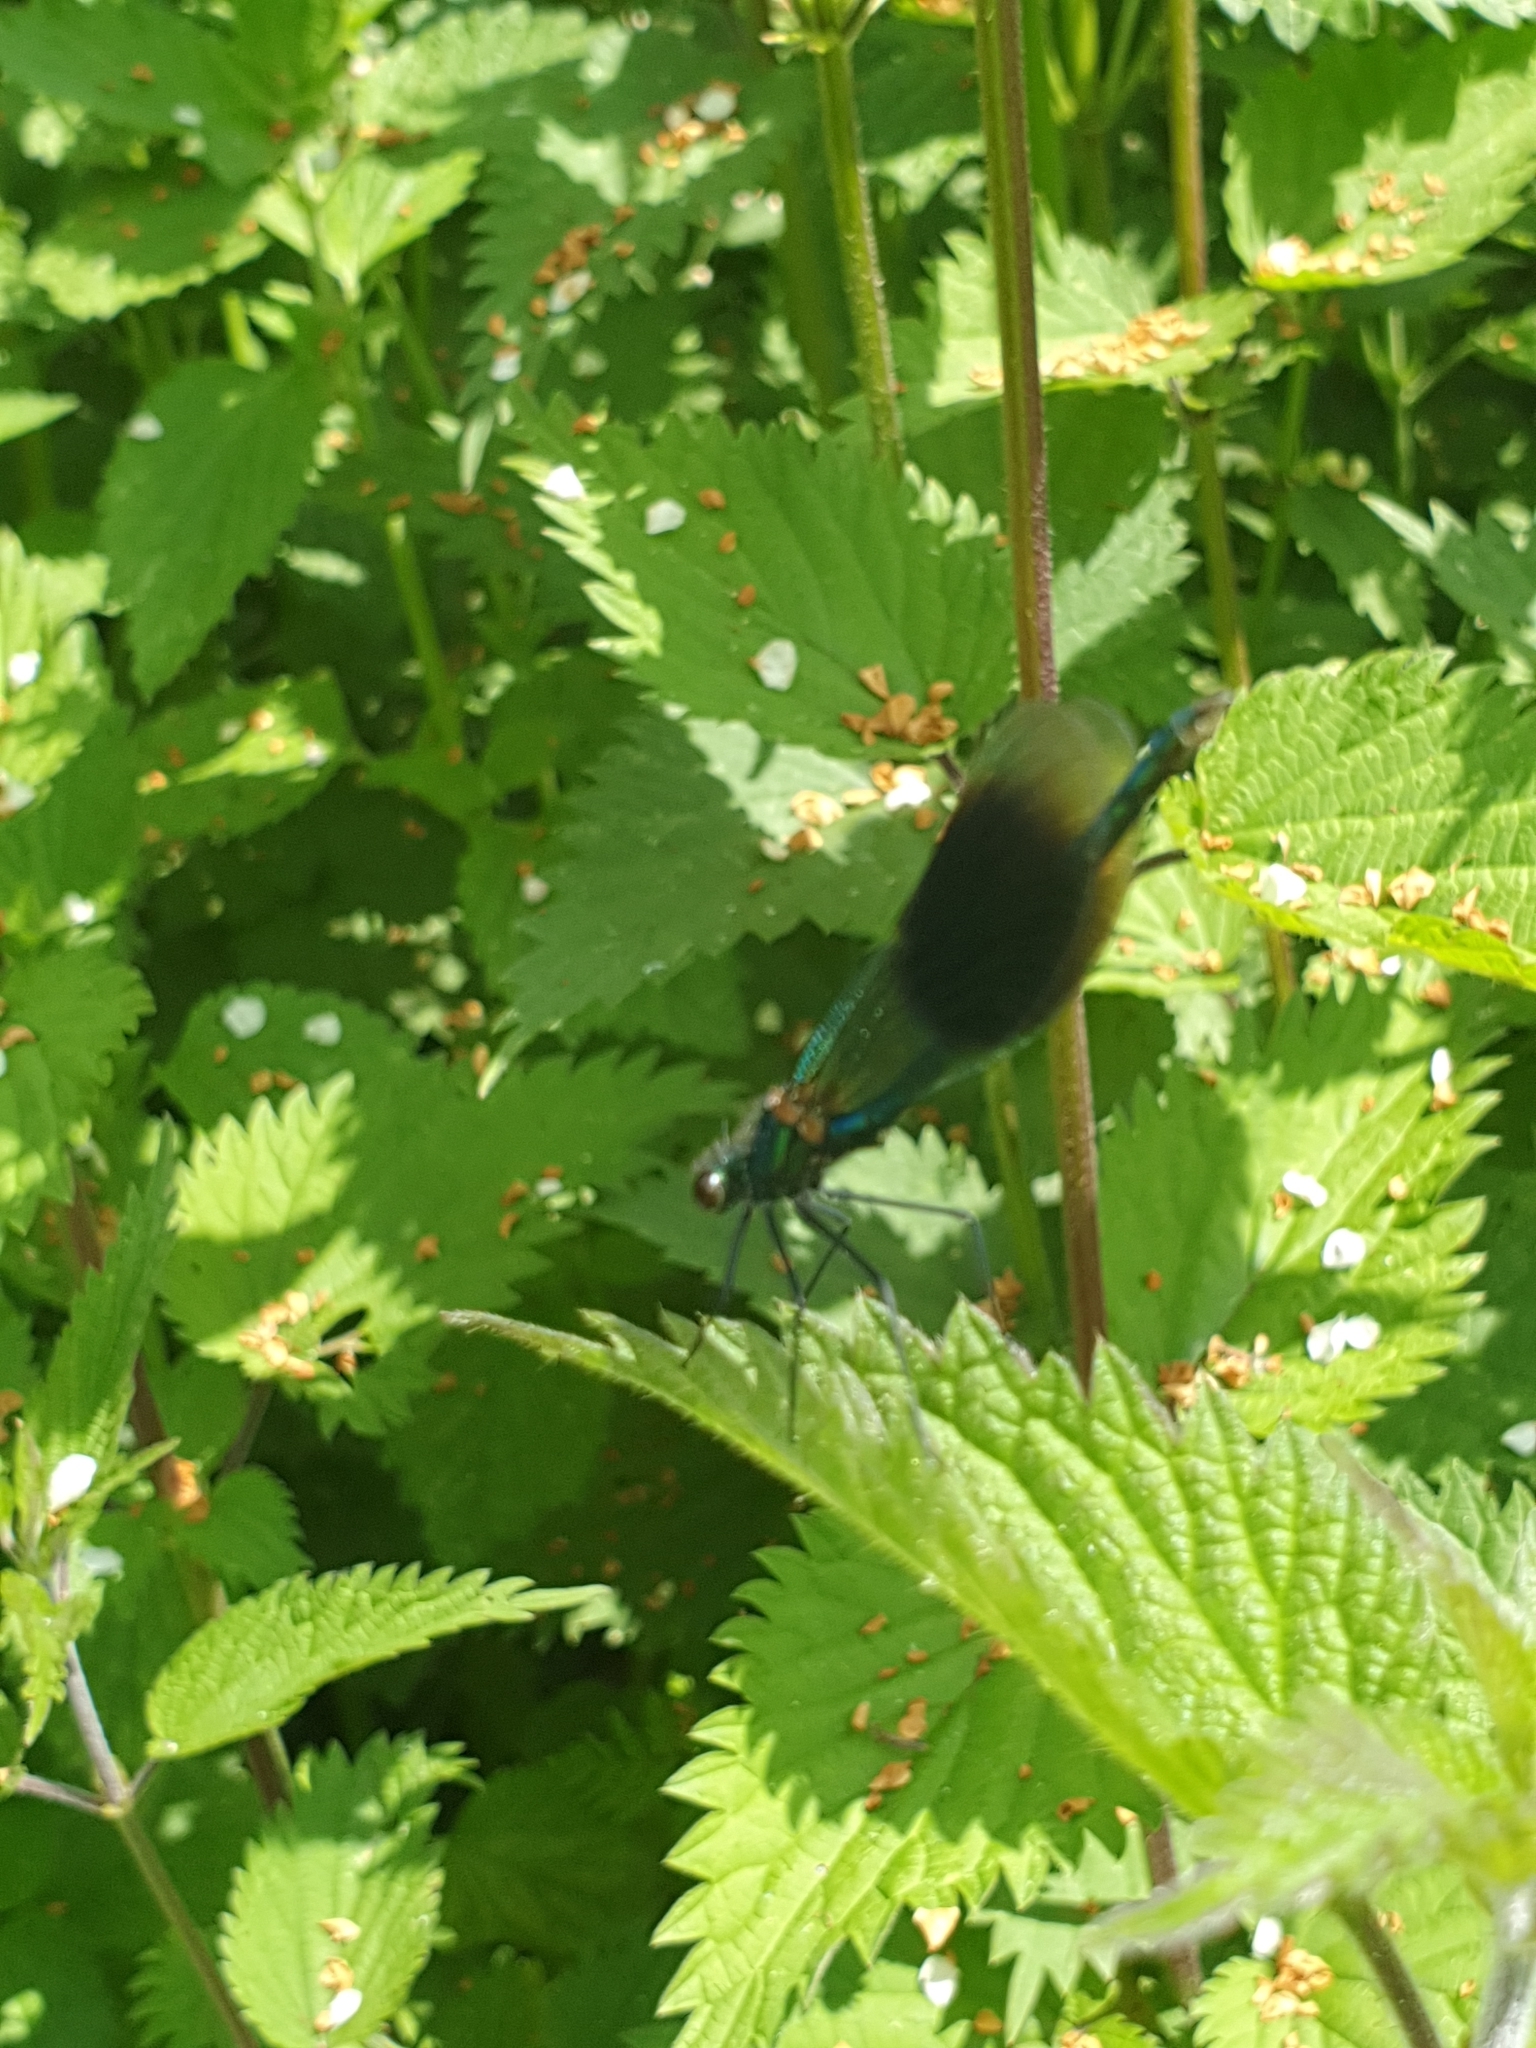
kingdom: Animalia
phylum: Arthropoda
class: Insecta
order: Odonata
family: Calopterygidae
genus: Calopteryx
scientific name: Calopteryx splendens
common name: Banded demoiselle
